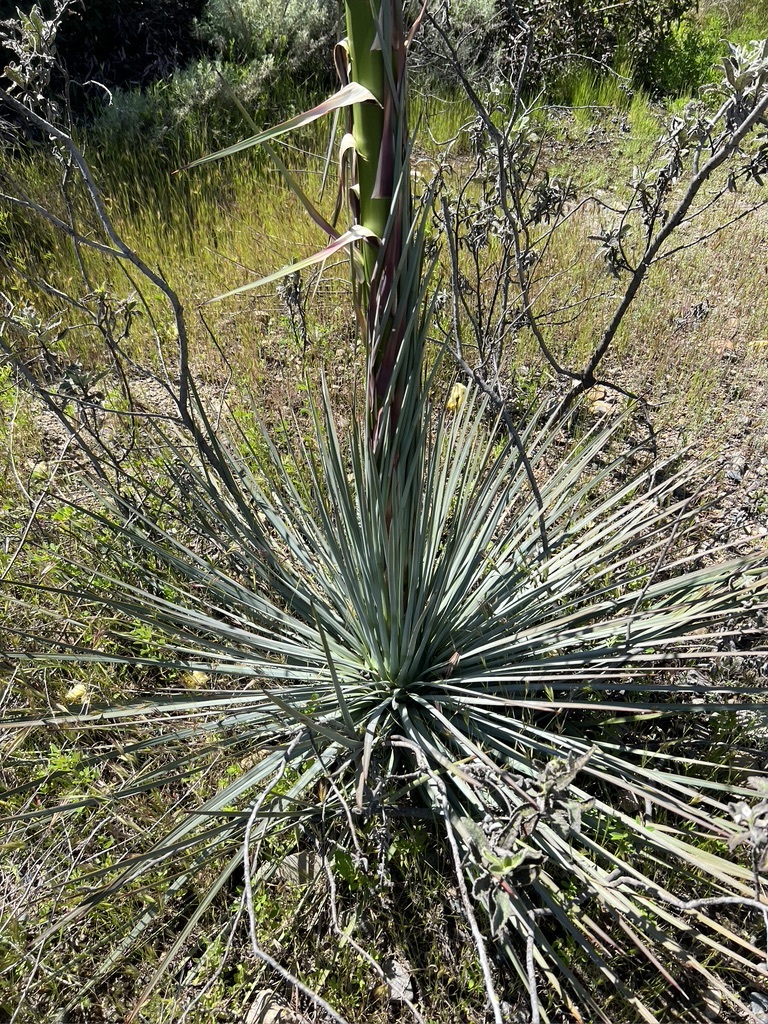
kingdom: Plantae
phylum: Tracheophyta
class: Liliopsida
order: Asparagales
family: Asparagaceae
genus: Hesperoyucca
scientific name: Hesperoyucca whipplei
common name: Our lord's-candle
